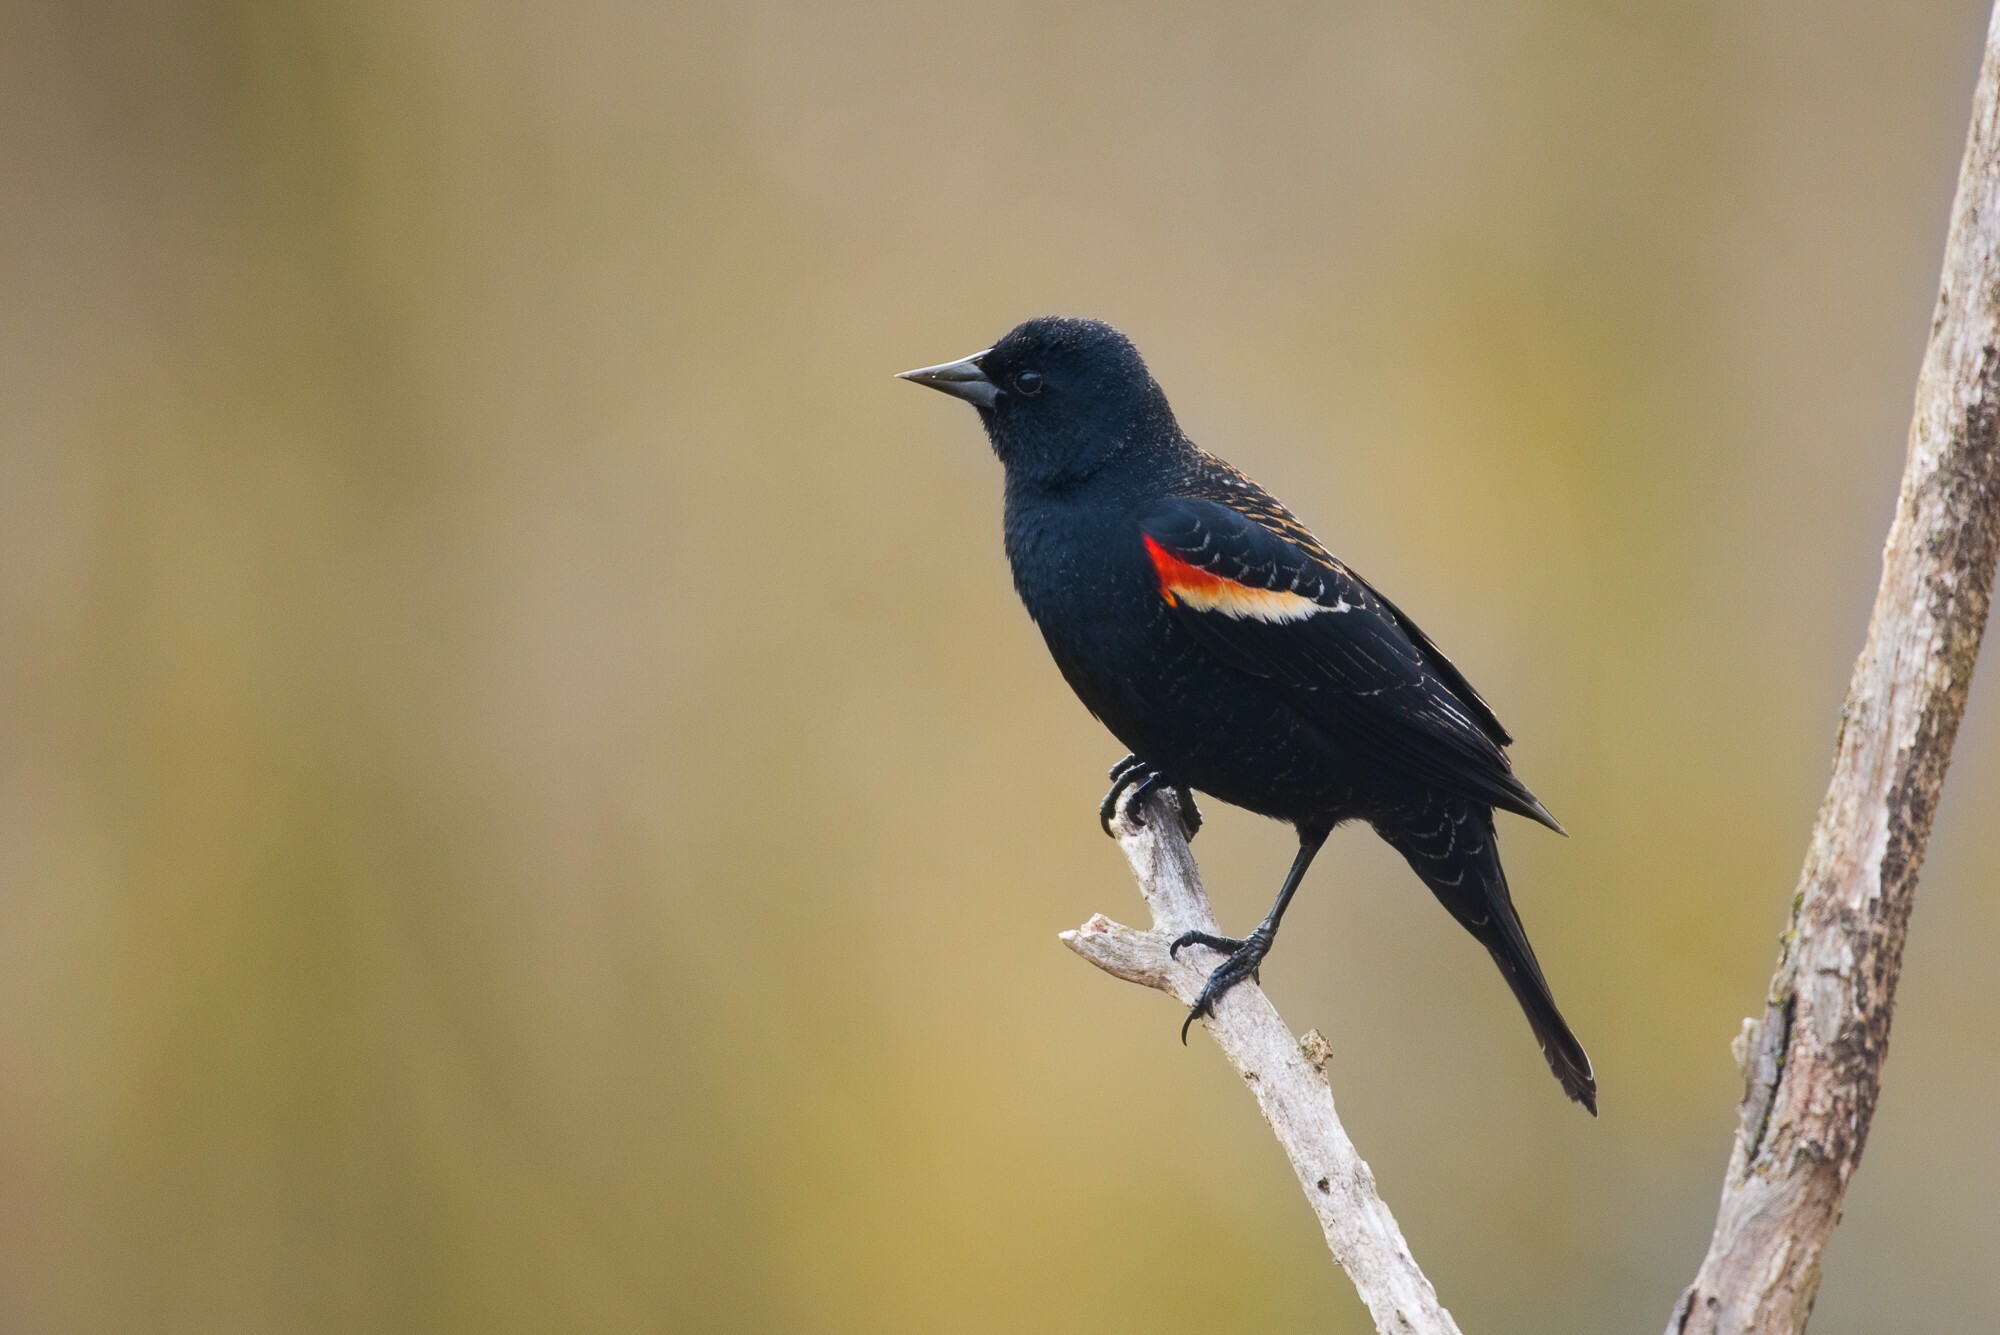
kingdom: Animalia
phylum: Chordata
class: Aves
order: Passeriformes
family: Icteridae
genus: Agelaius
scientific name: Agelaius phoeniceus
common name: Red-winged blackbird
